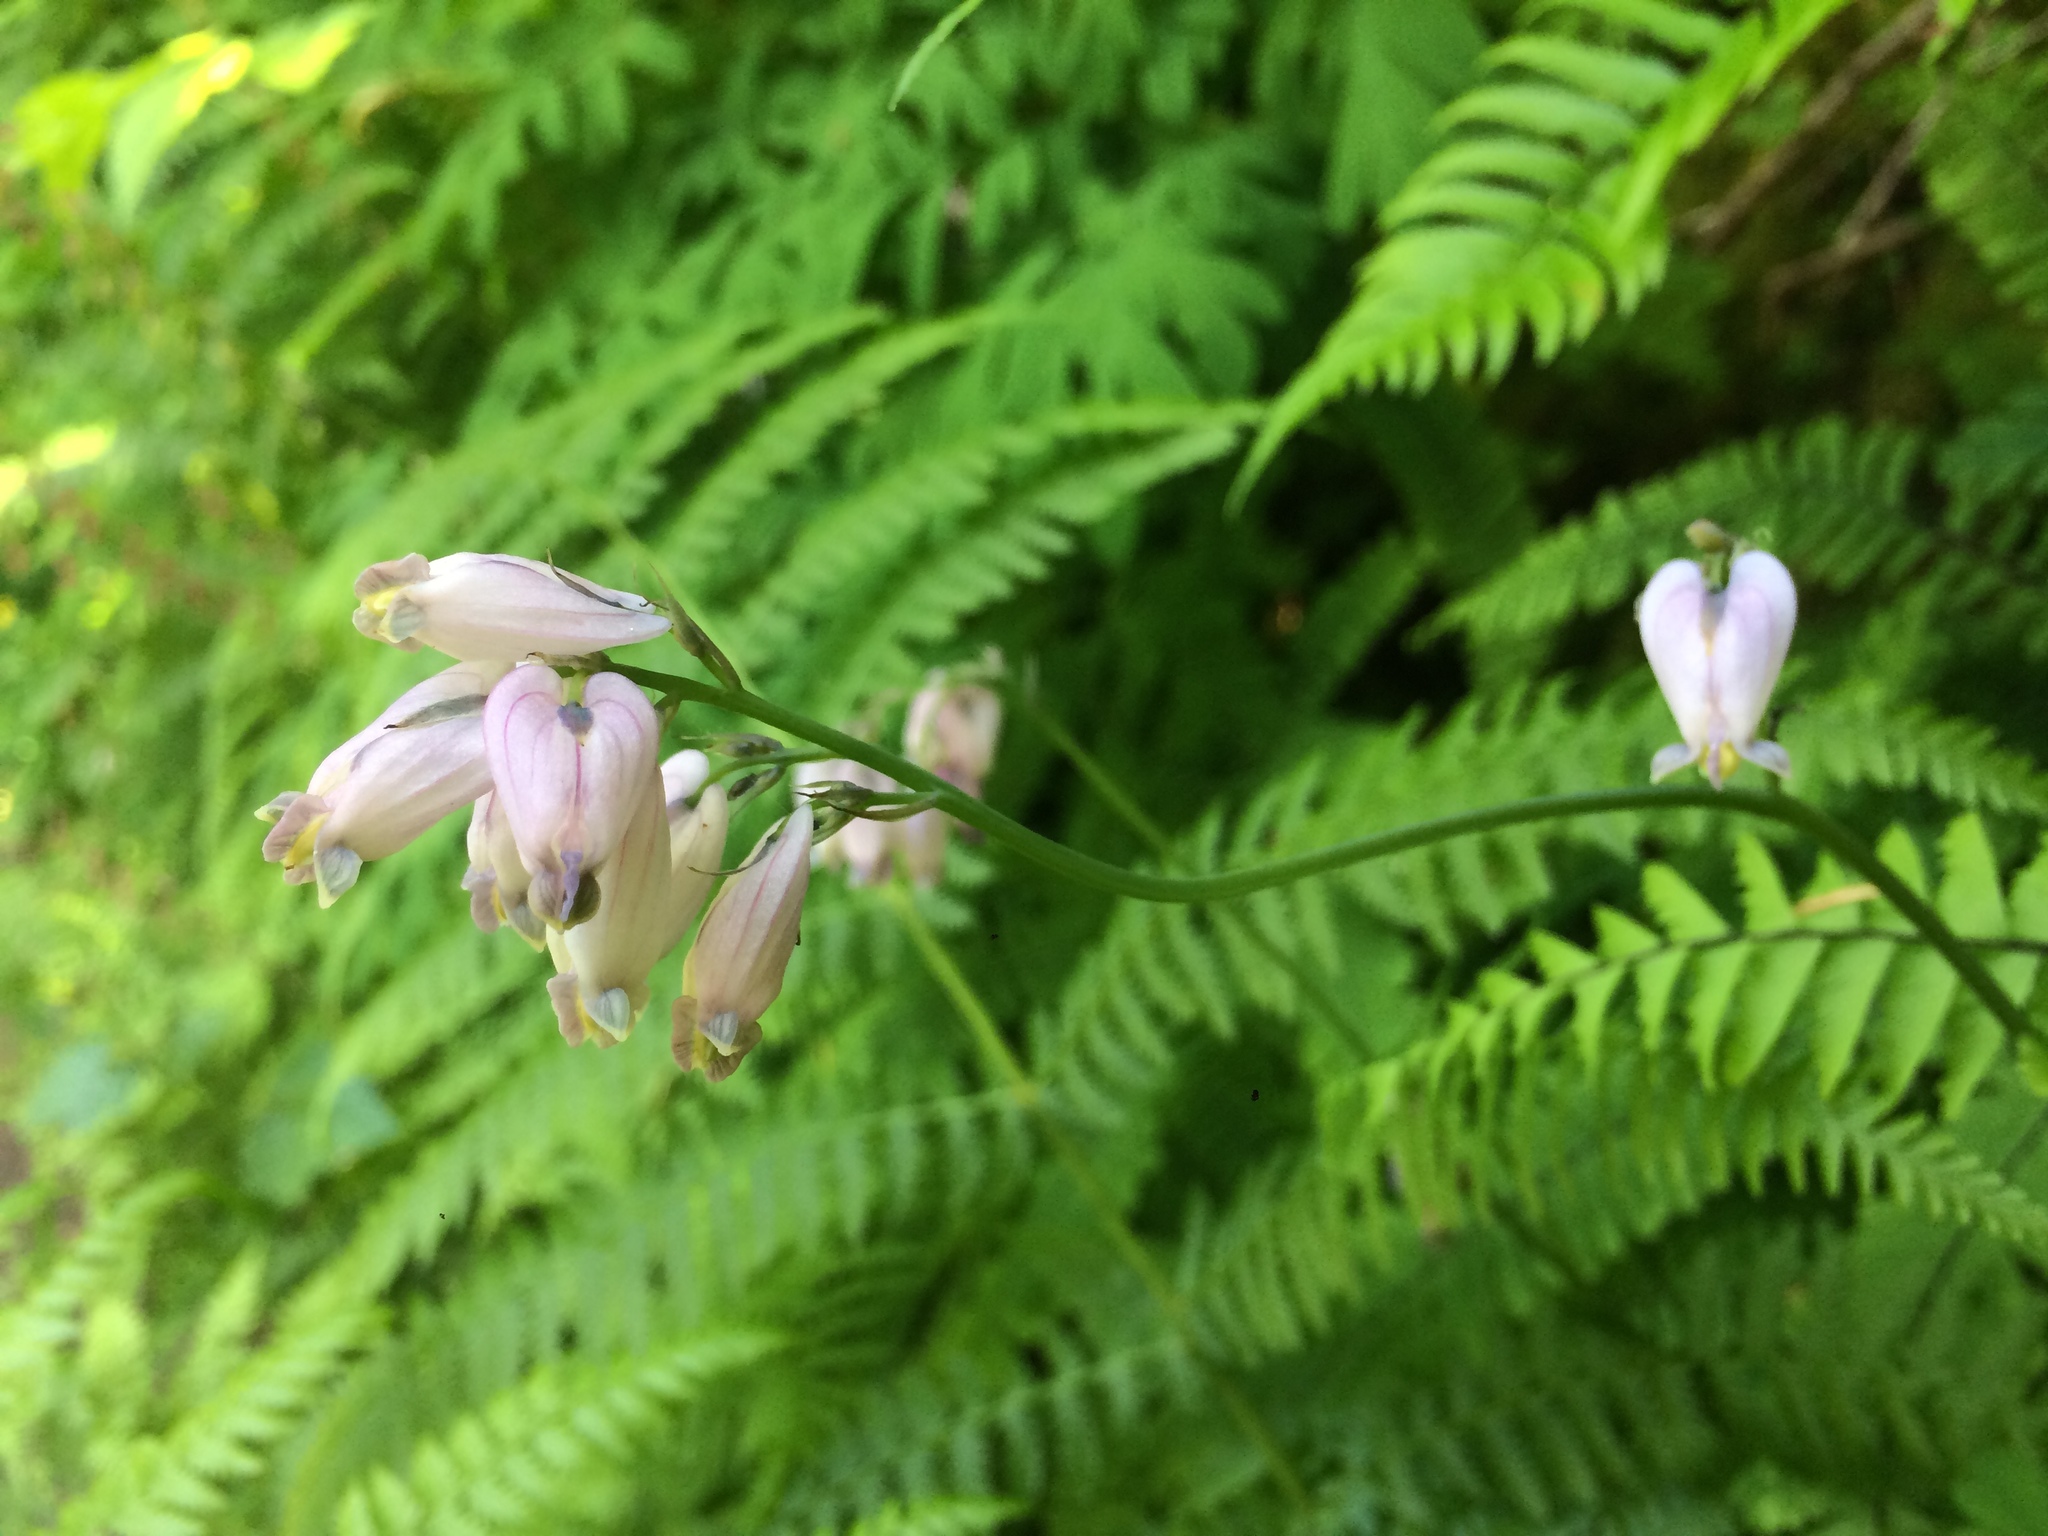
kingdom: Plantae
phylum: Tracheophyta
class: Magnoliopsida
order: Ranunculales
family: Papaveraceae
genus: Dicentra
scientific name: Dicentra formosa
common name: Bleeding-heart
